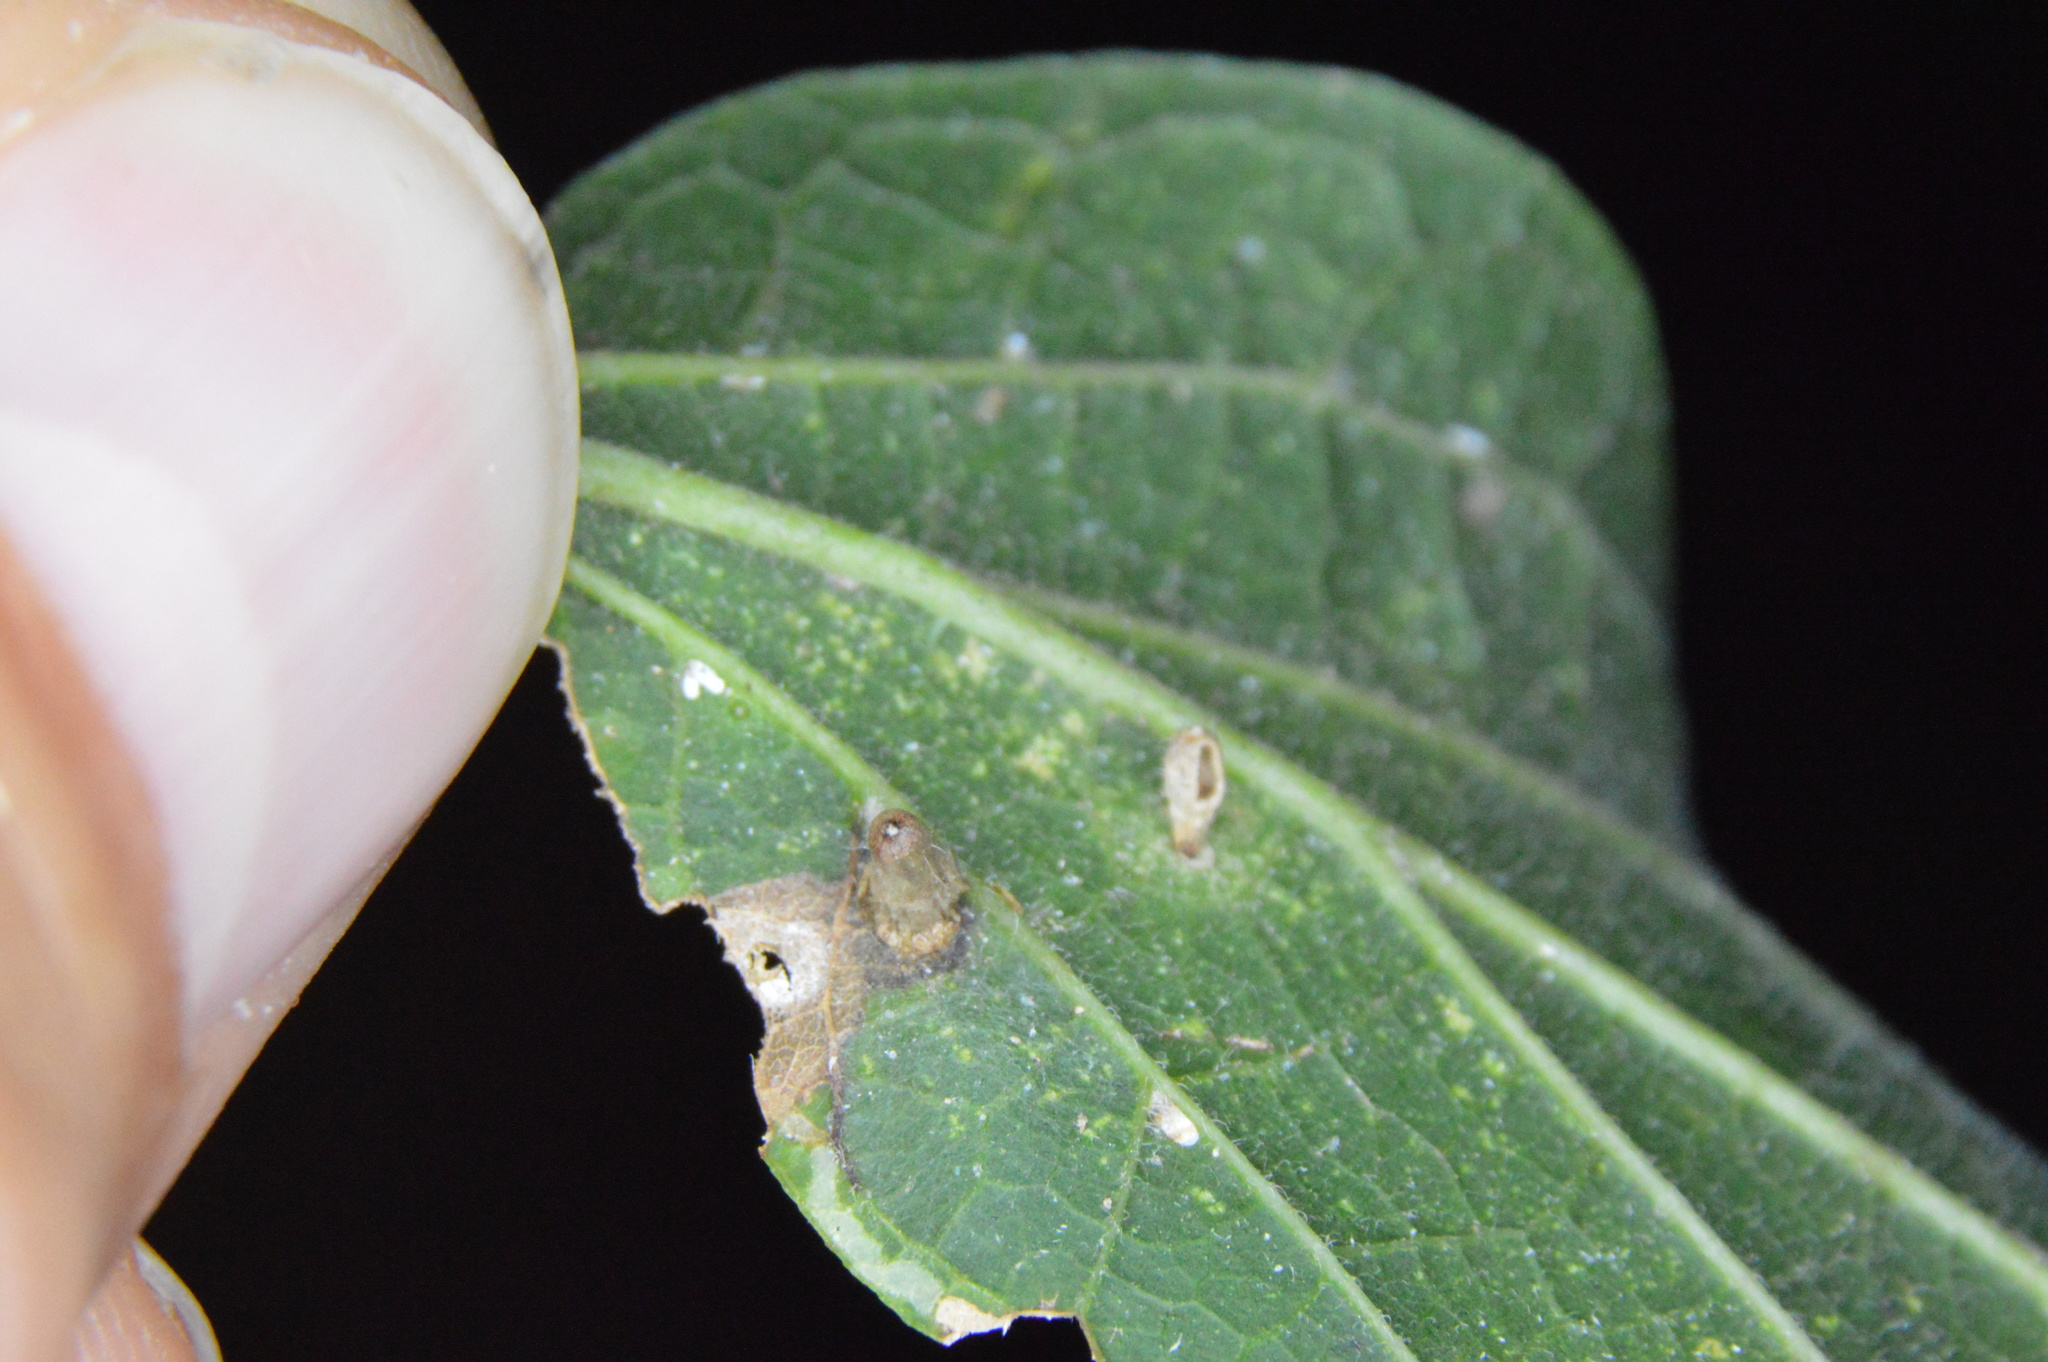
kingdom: Animalia
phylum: Arthropoda
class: Insecta
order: Diptera
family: Cecidomyiidae
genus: Celticecis
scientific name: Celticecis aciculata
